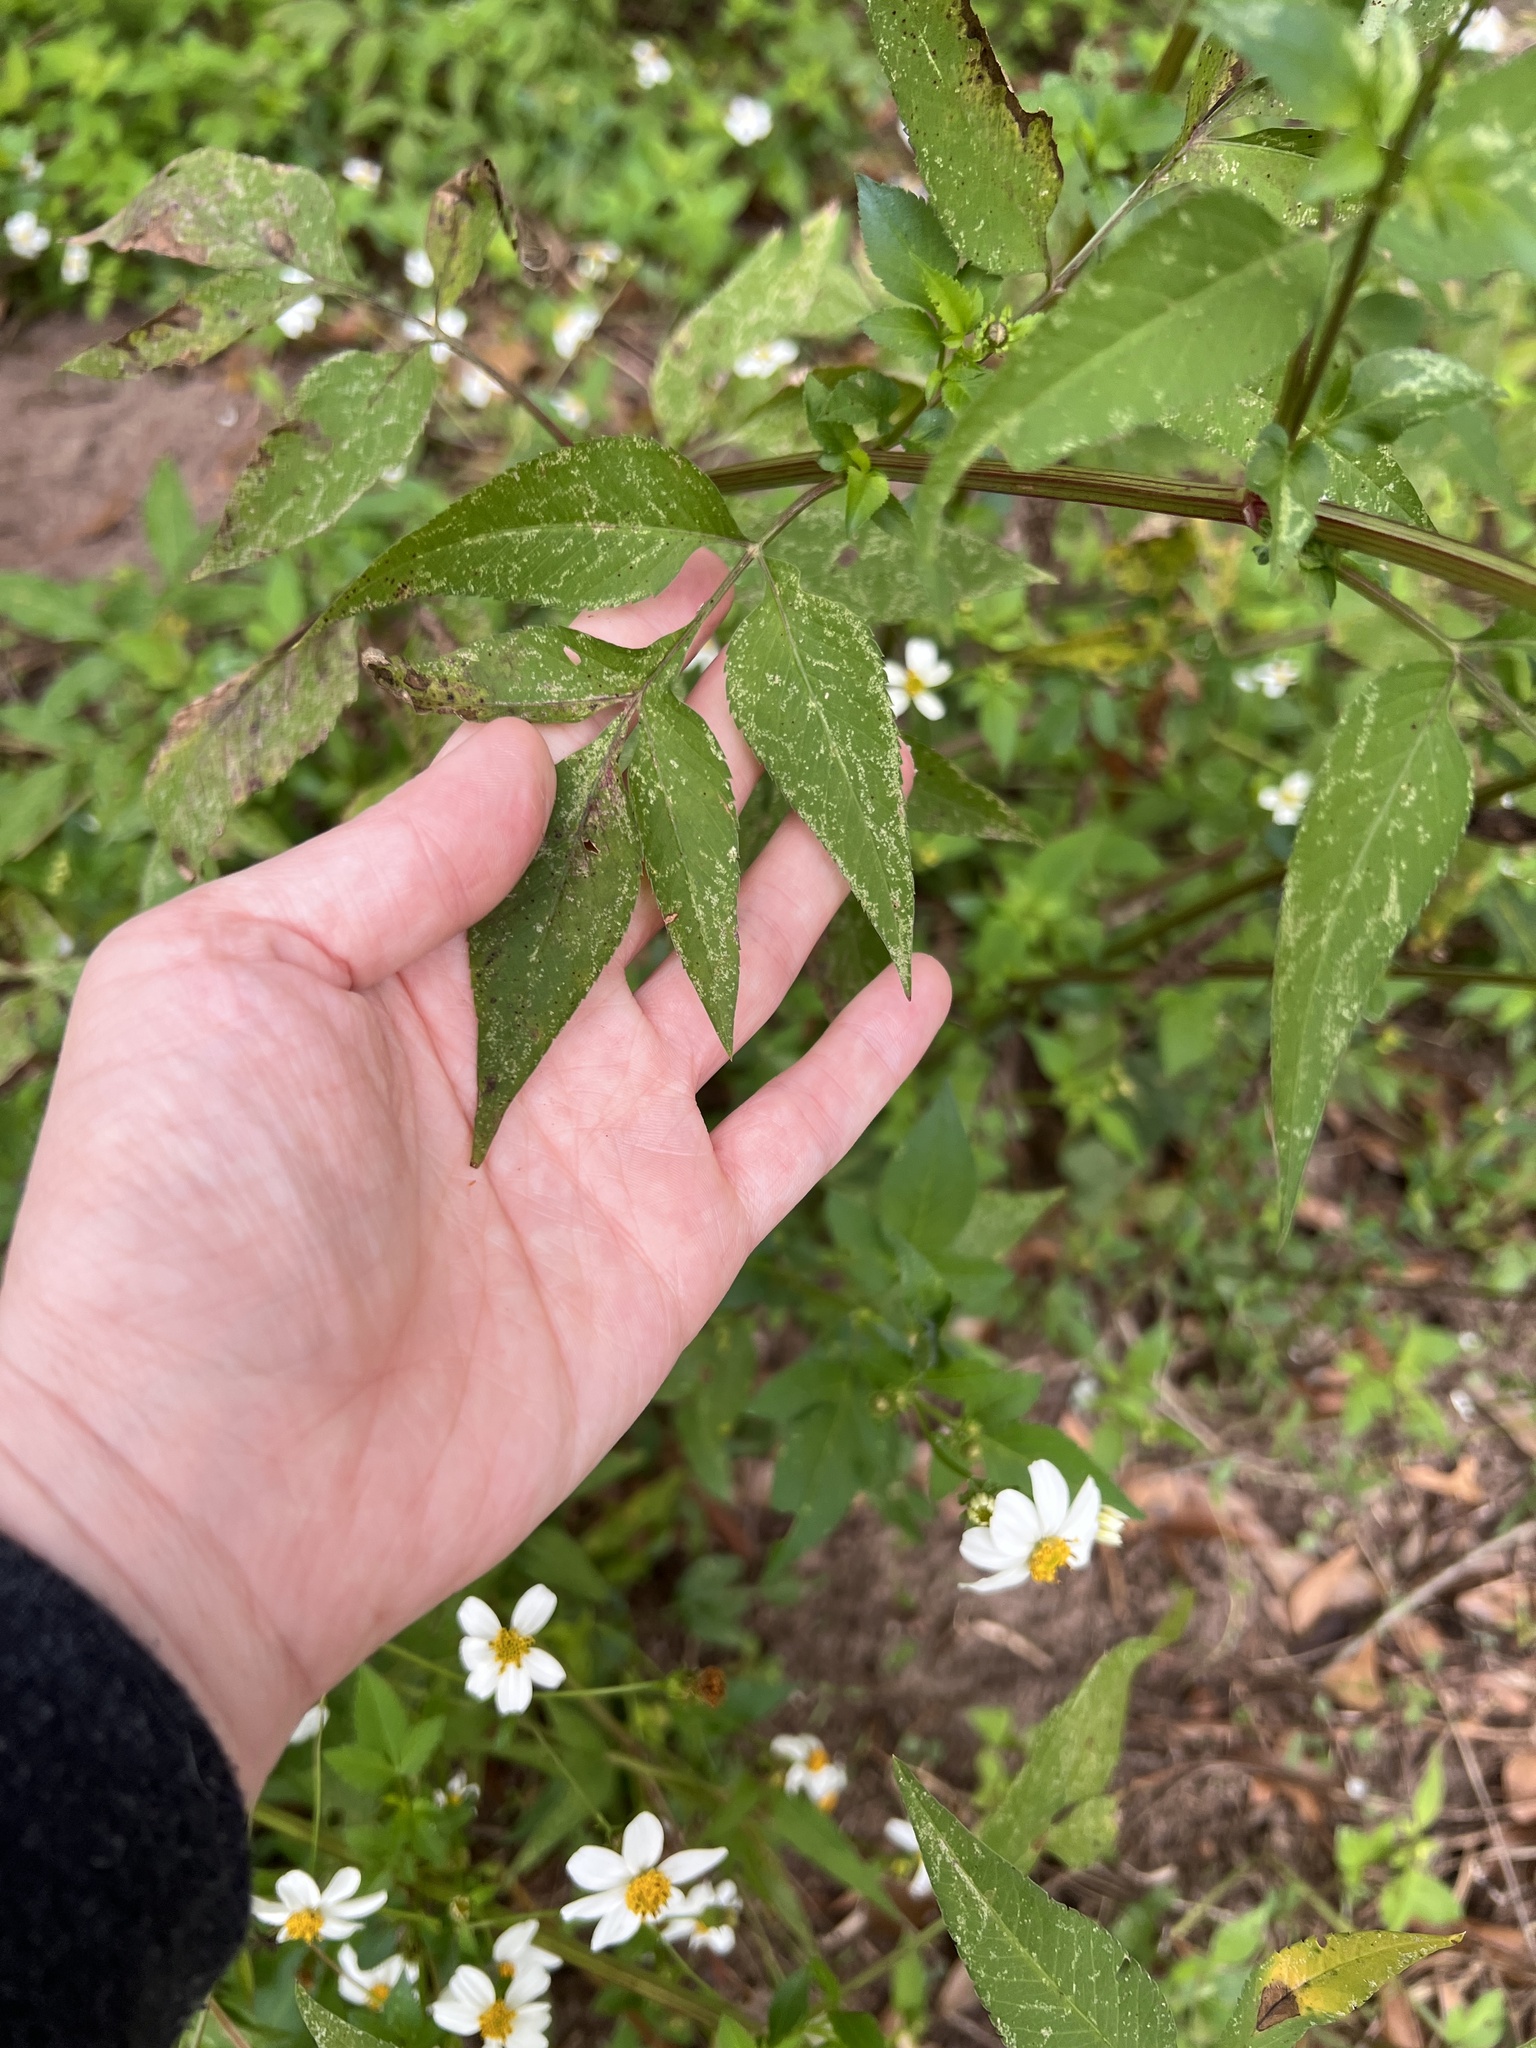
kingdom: Plantae
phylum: Tracheophyta
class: Magnoliopsida
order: Asterales
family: Asteraceae
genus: Bidens
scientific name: Bidens alba
